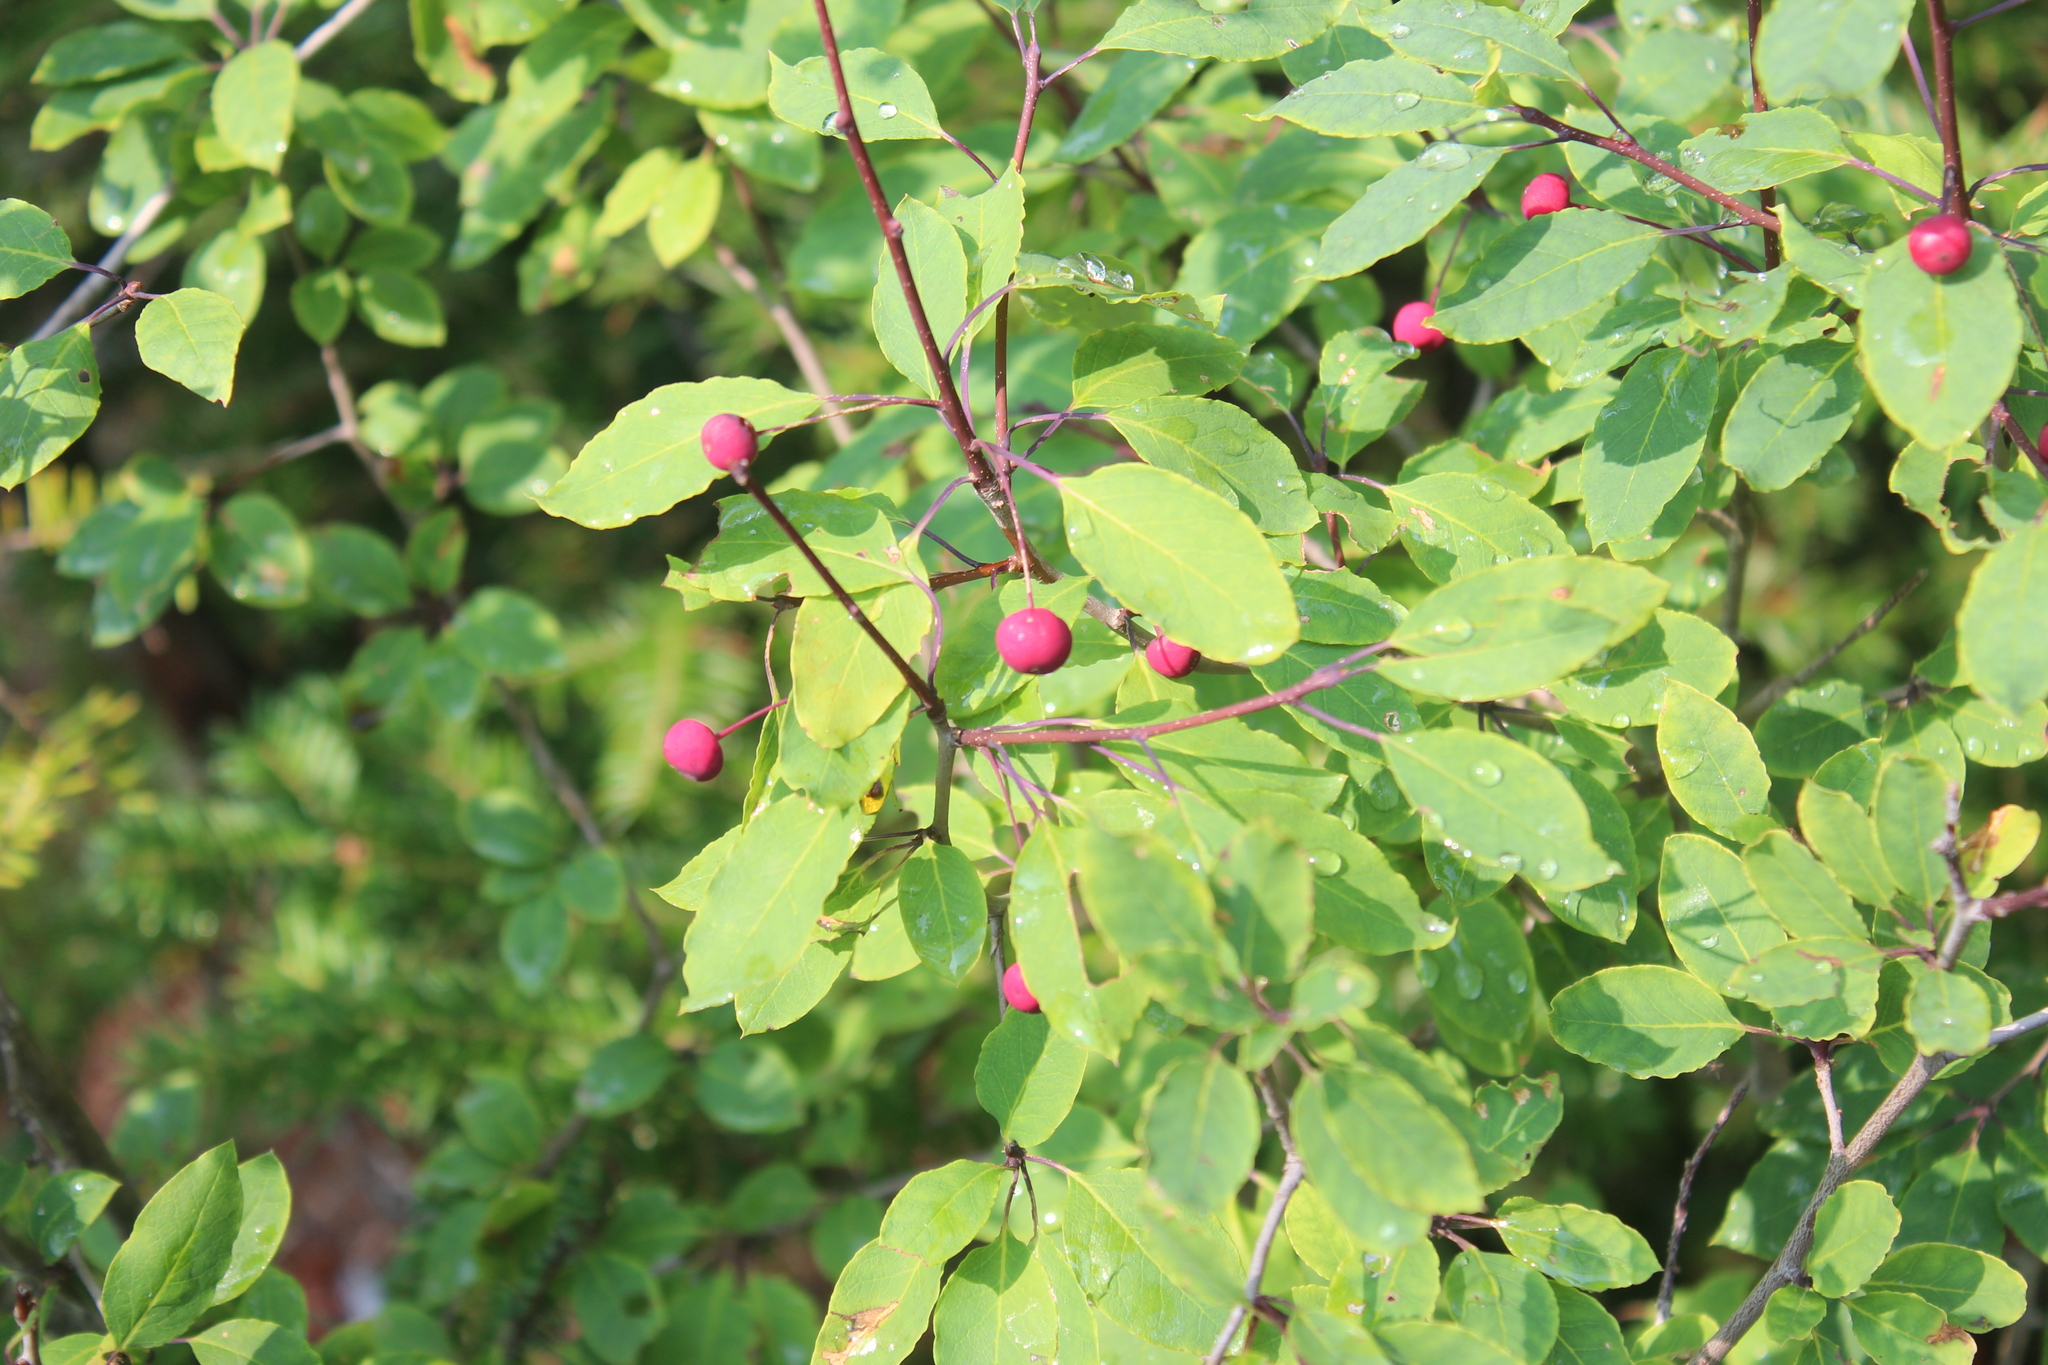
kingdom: Plantae
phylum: Tracheophyta
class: Magnoliopsida
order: Aquifoliales
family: Aquifoliaceae
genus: Ilex
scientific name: Ilex mucronata
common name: Catberry
